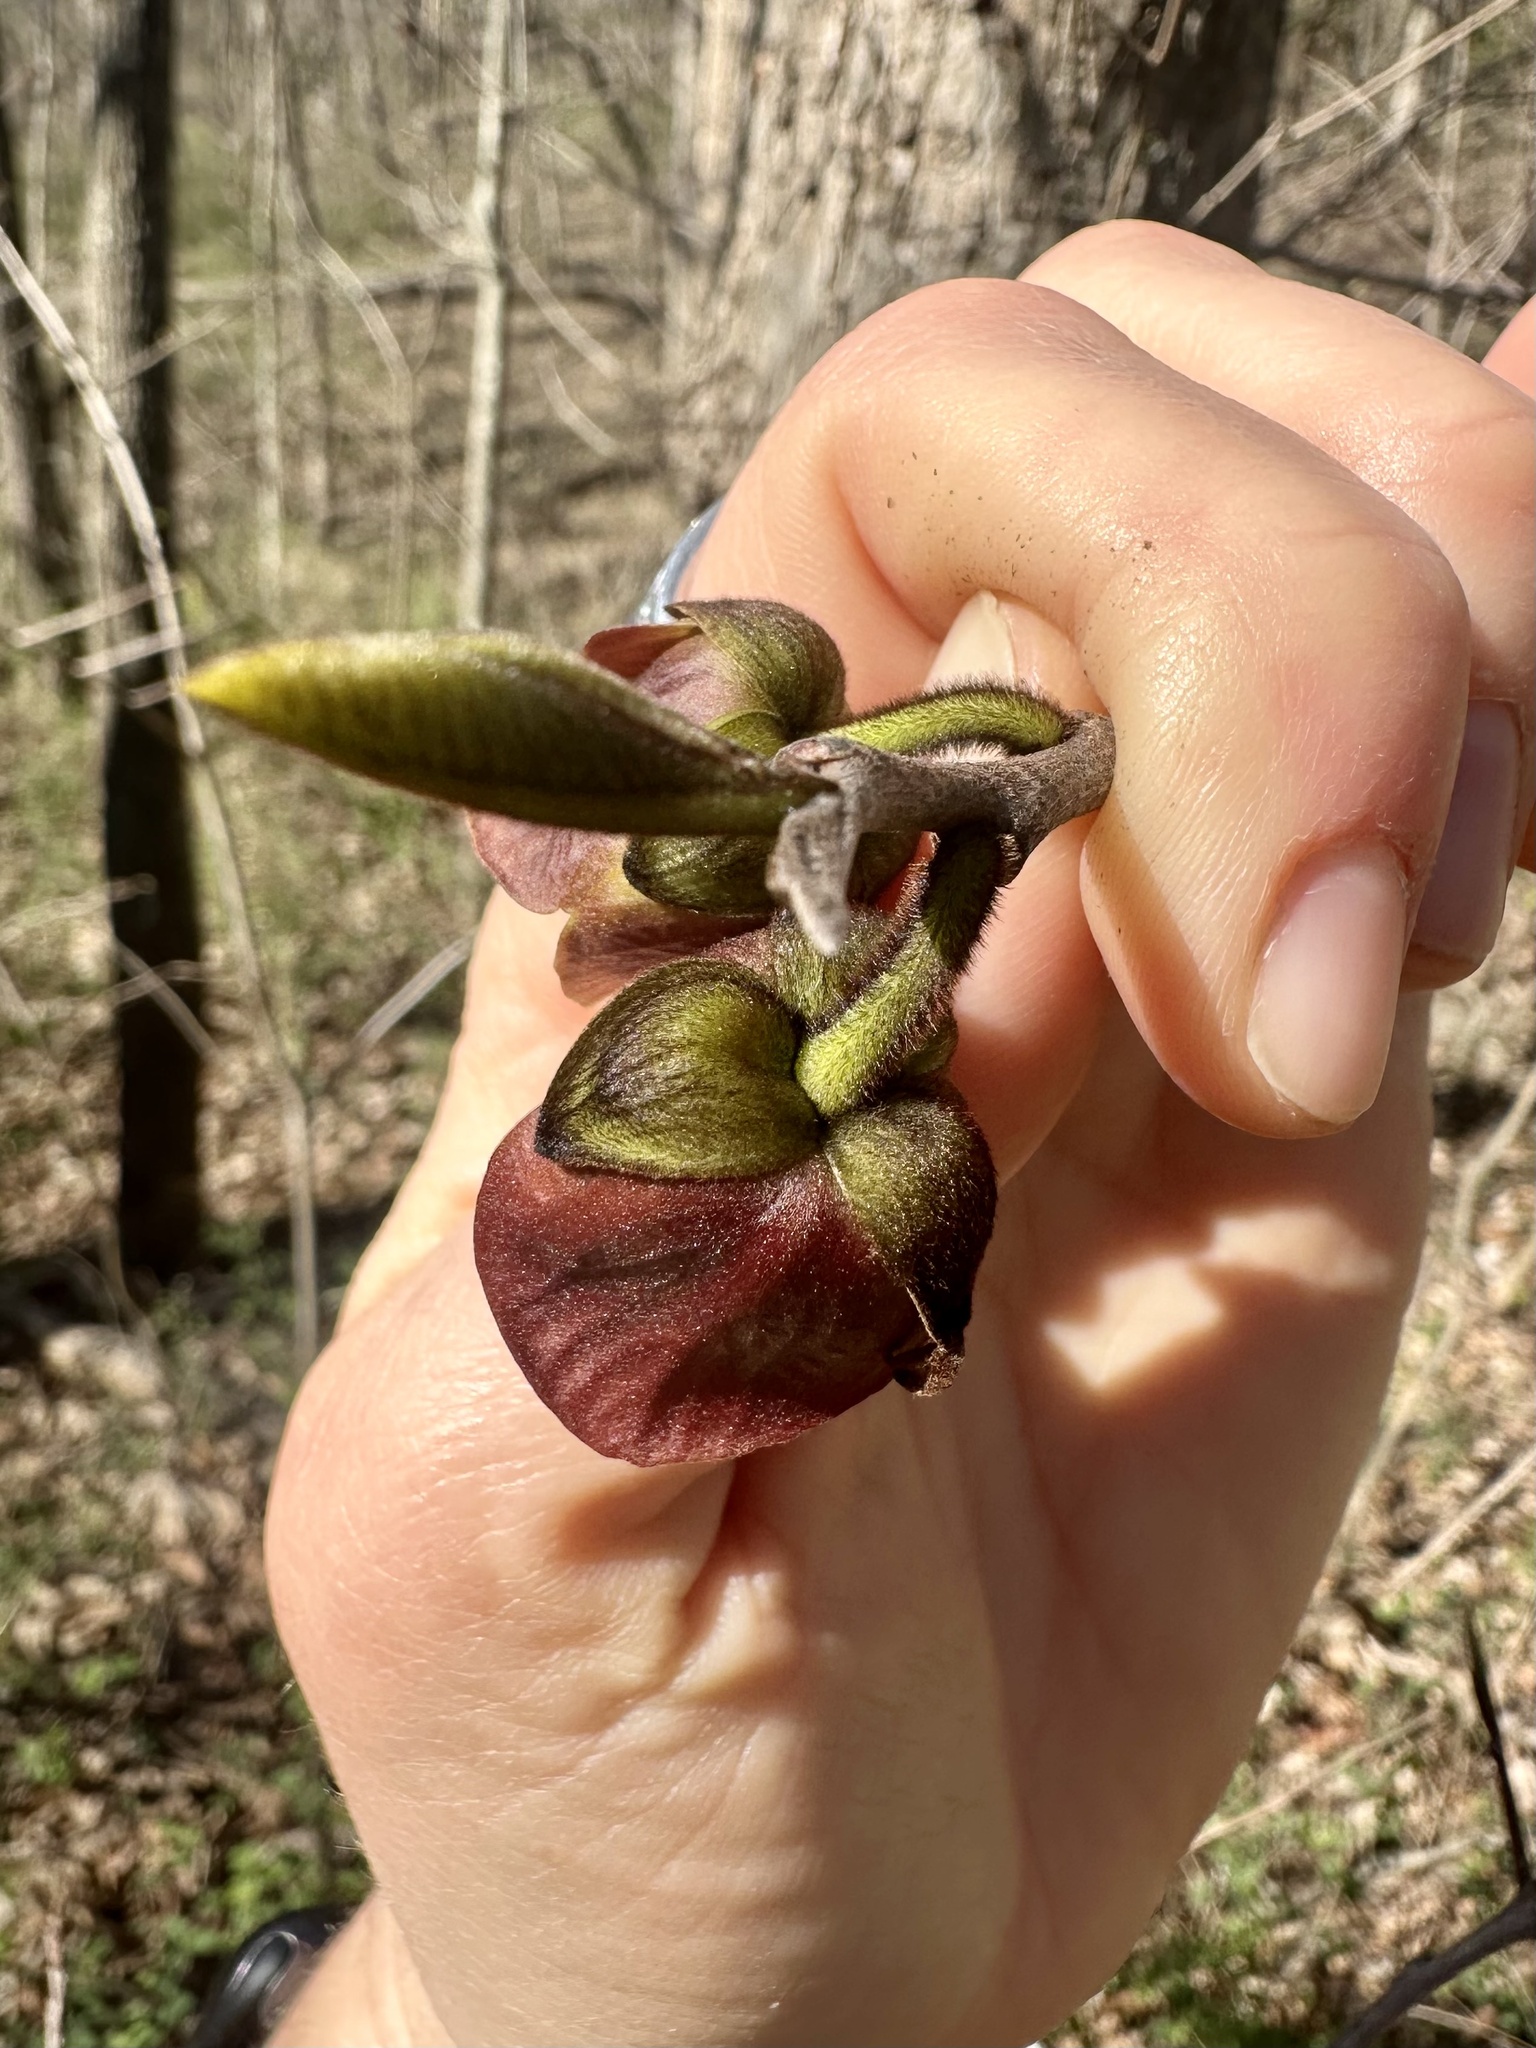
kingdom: Plantae
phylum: Tracheophyta
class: Magnoliopsida
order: Magnoliales
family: Annonaceae
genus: Asimina
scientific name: Asimina triloba
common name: Dog-banana
